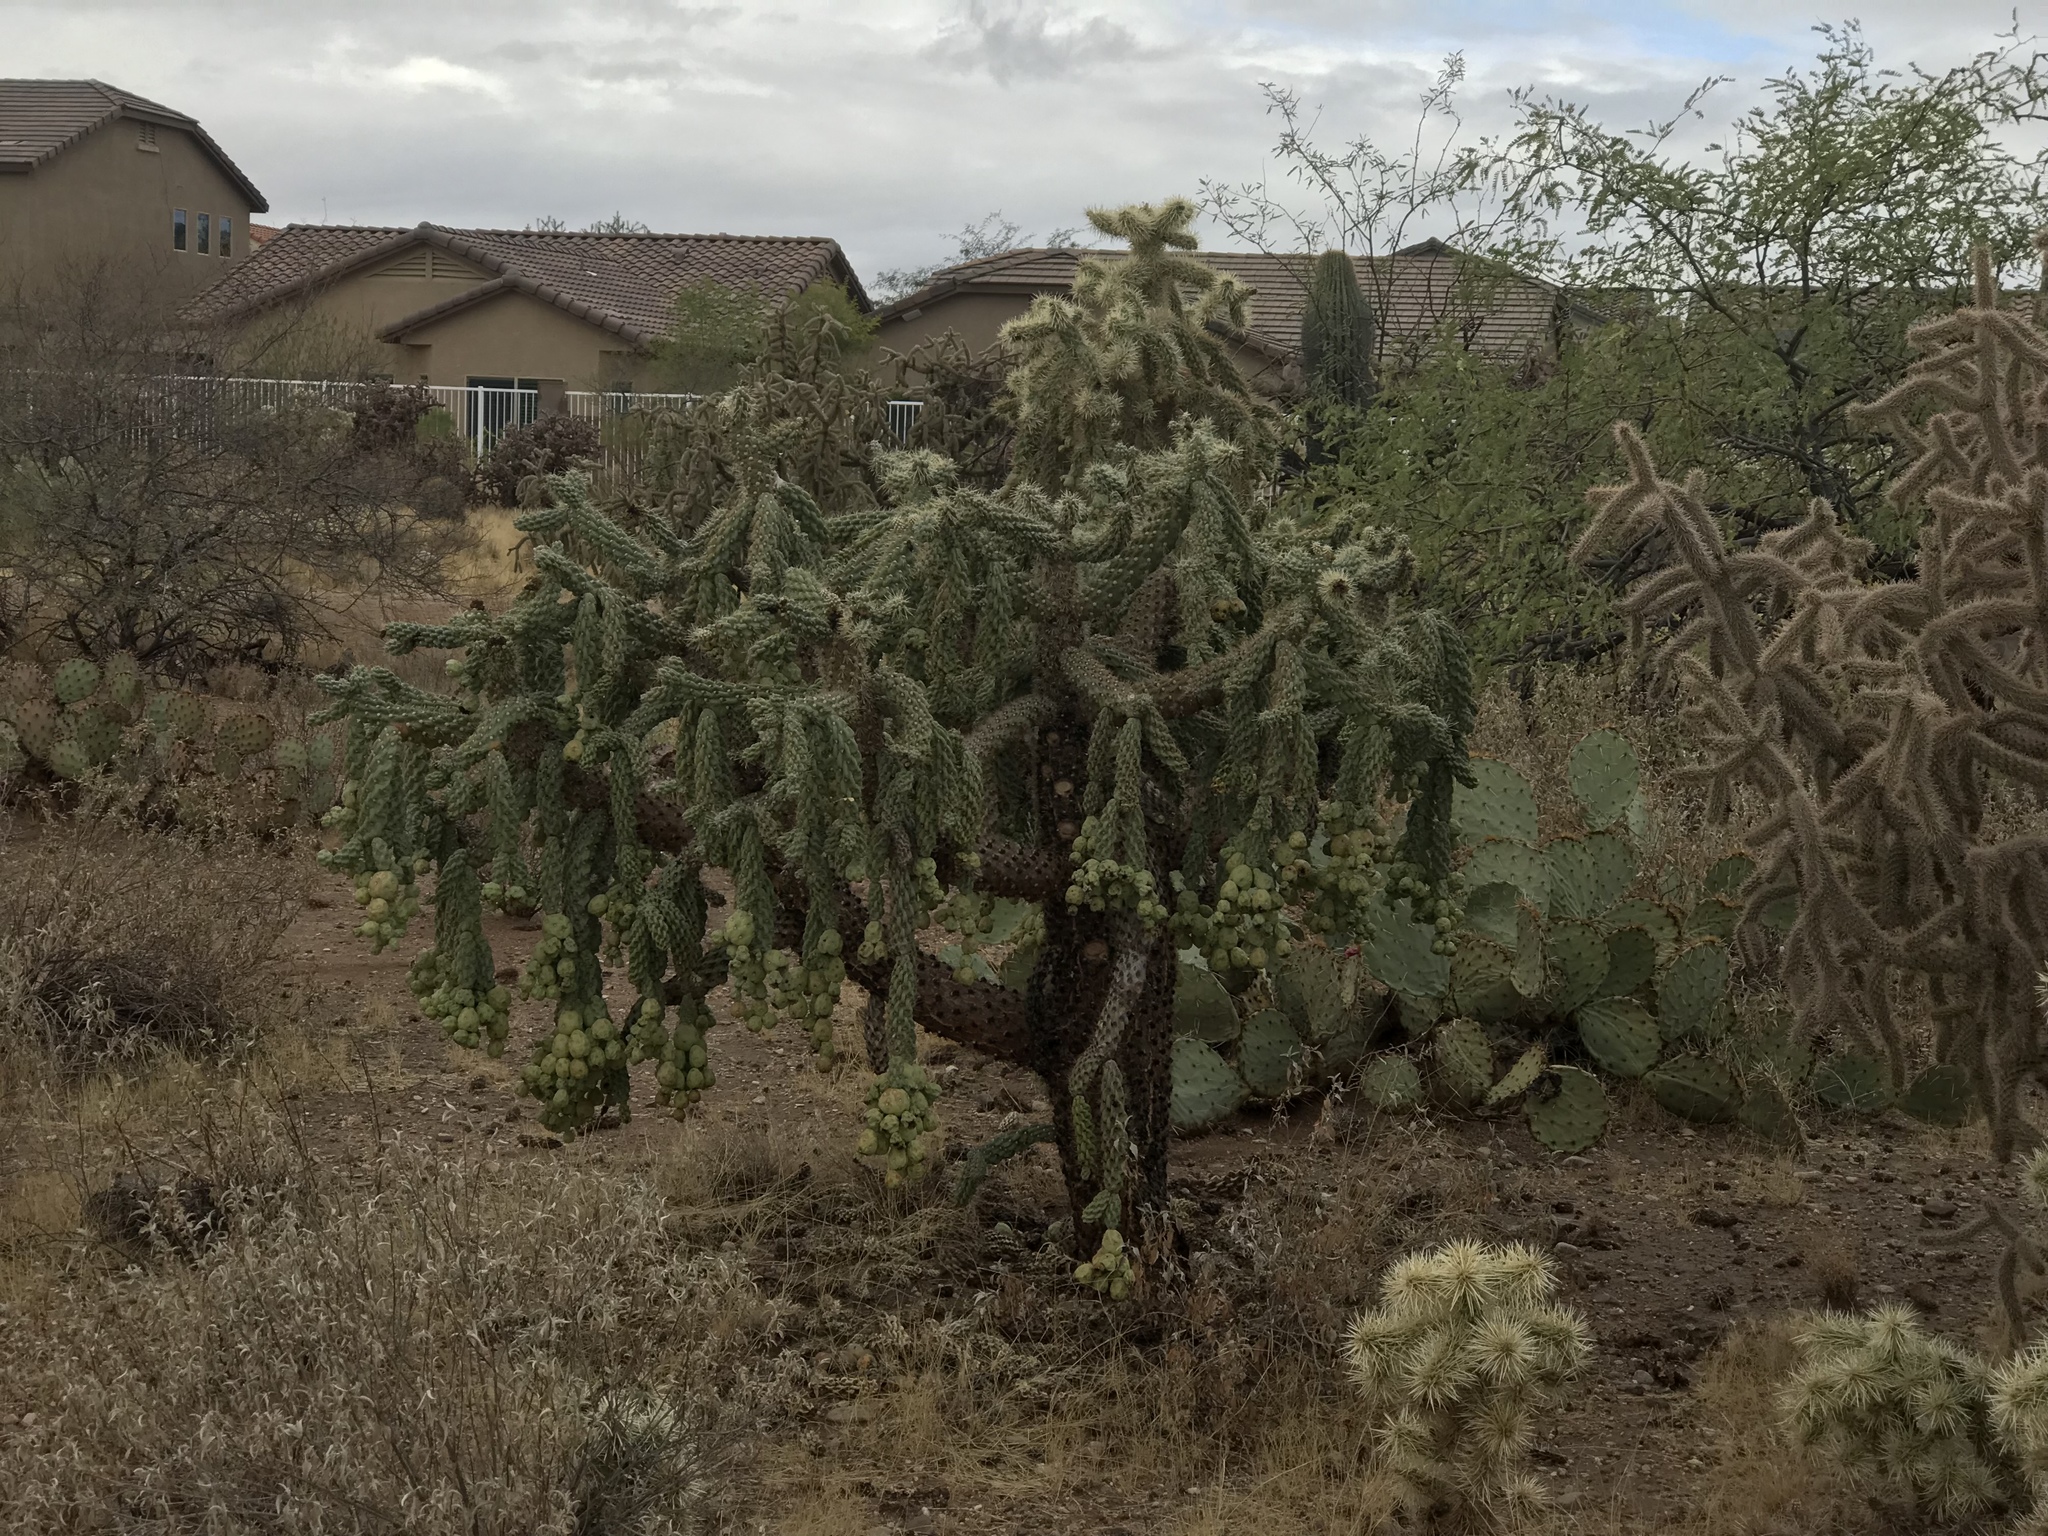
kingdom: Plantae
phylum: Tracheophyta
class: Magnoliopsida
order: Caryophyllales
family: Cactaceae
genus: Cylindropuntia
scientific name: Cylindropuntia fulgida
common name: Jumping cholla
